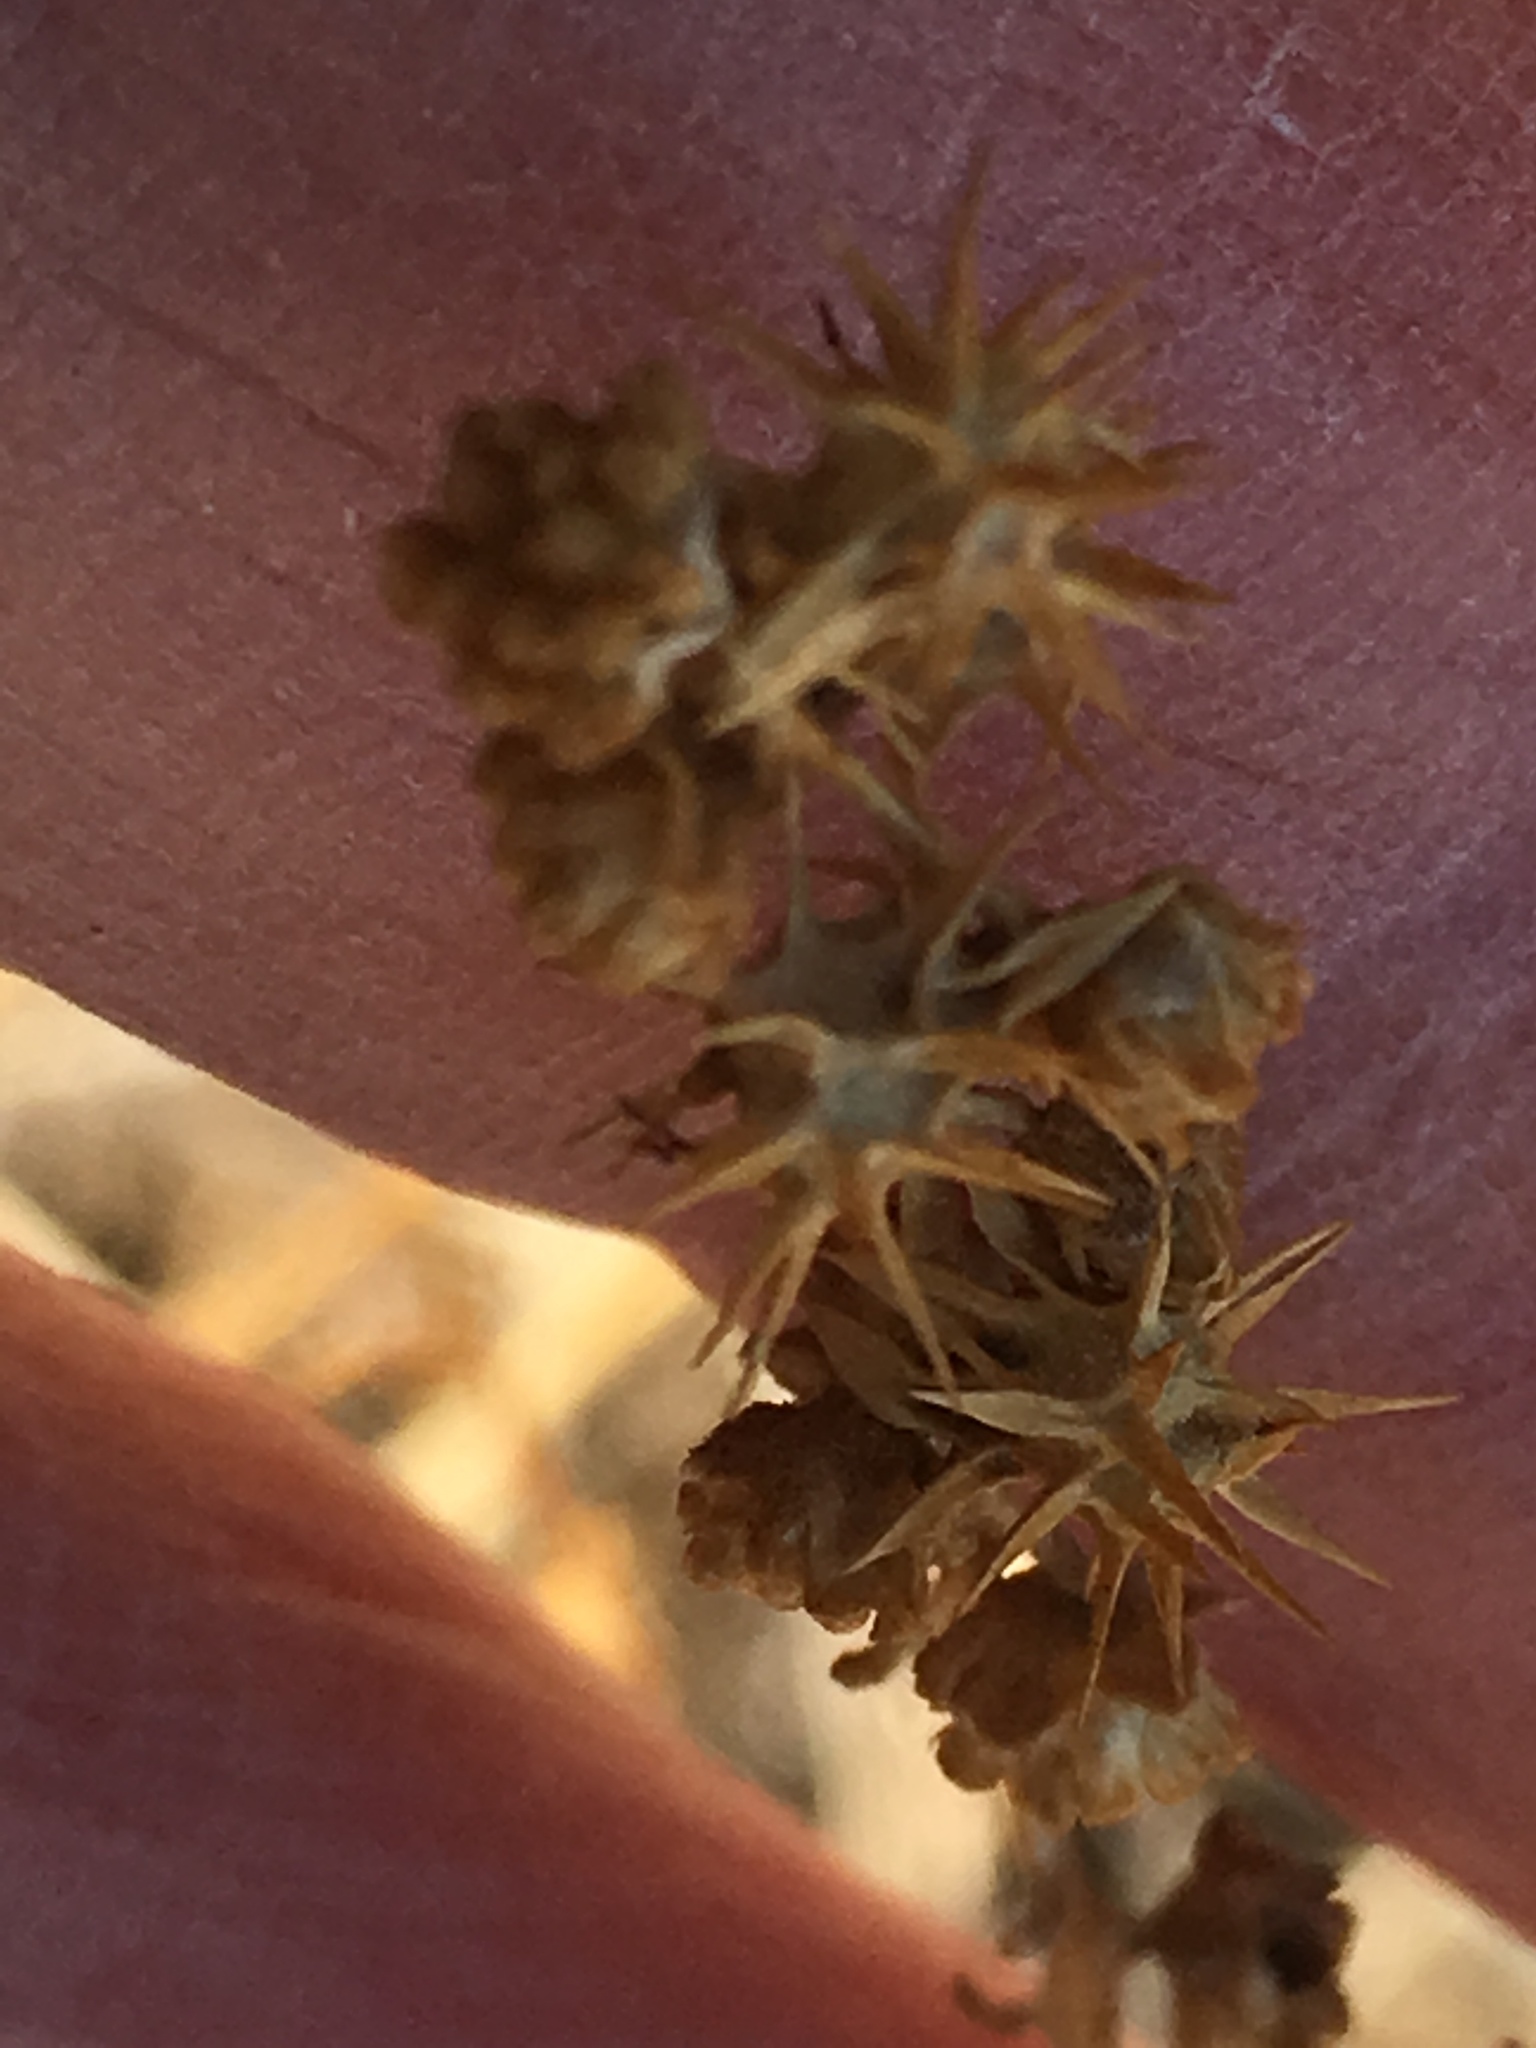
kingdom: Plantae
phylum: Tracheophyta
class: Magnoliopsida
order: Asterales
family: Asteraceae
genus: Ambrosia
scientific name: Ambrosia dumosa
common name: Bur-sage
